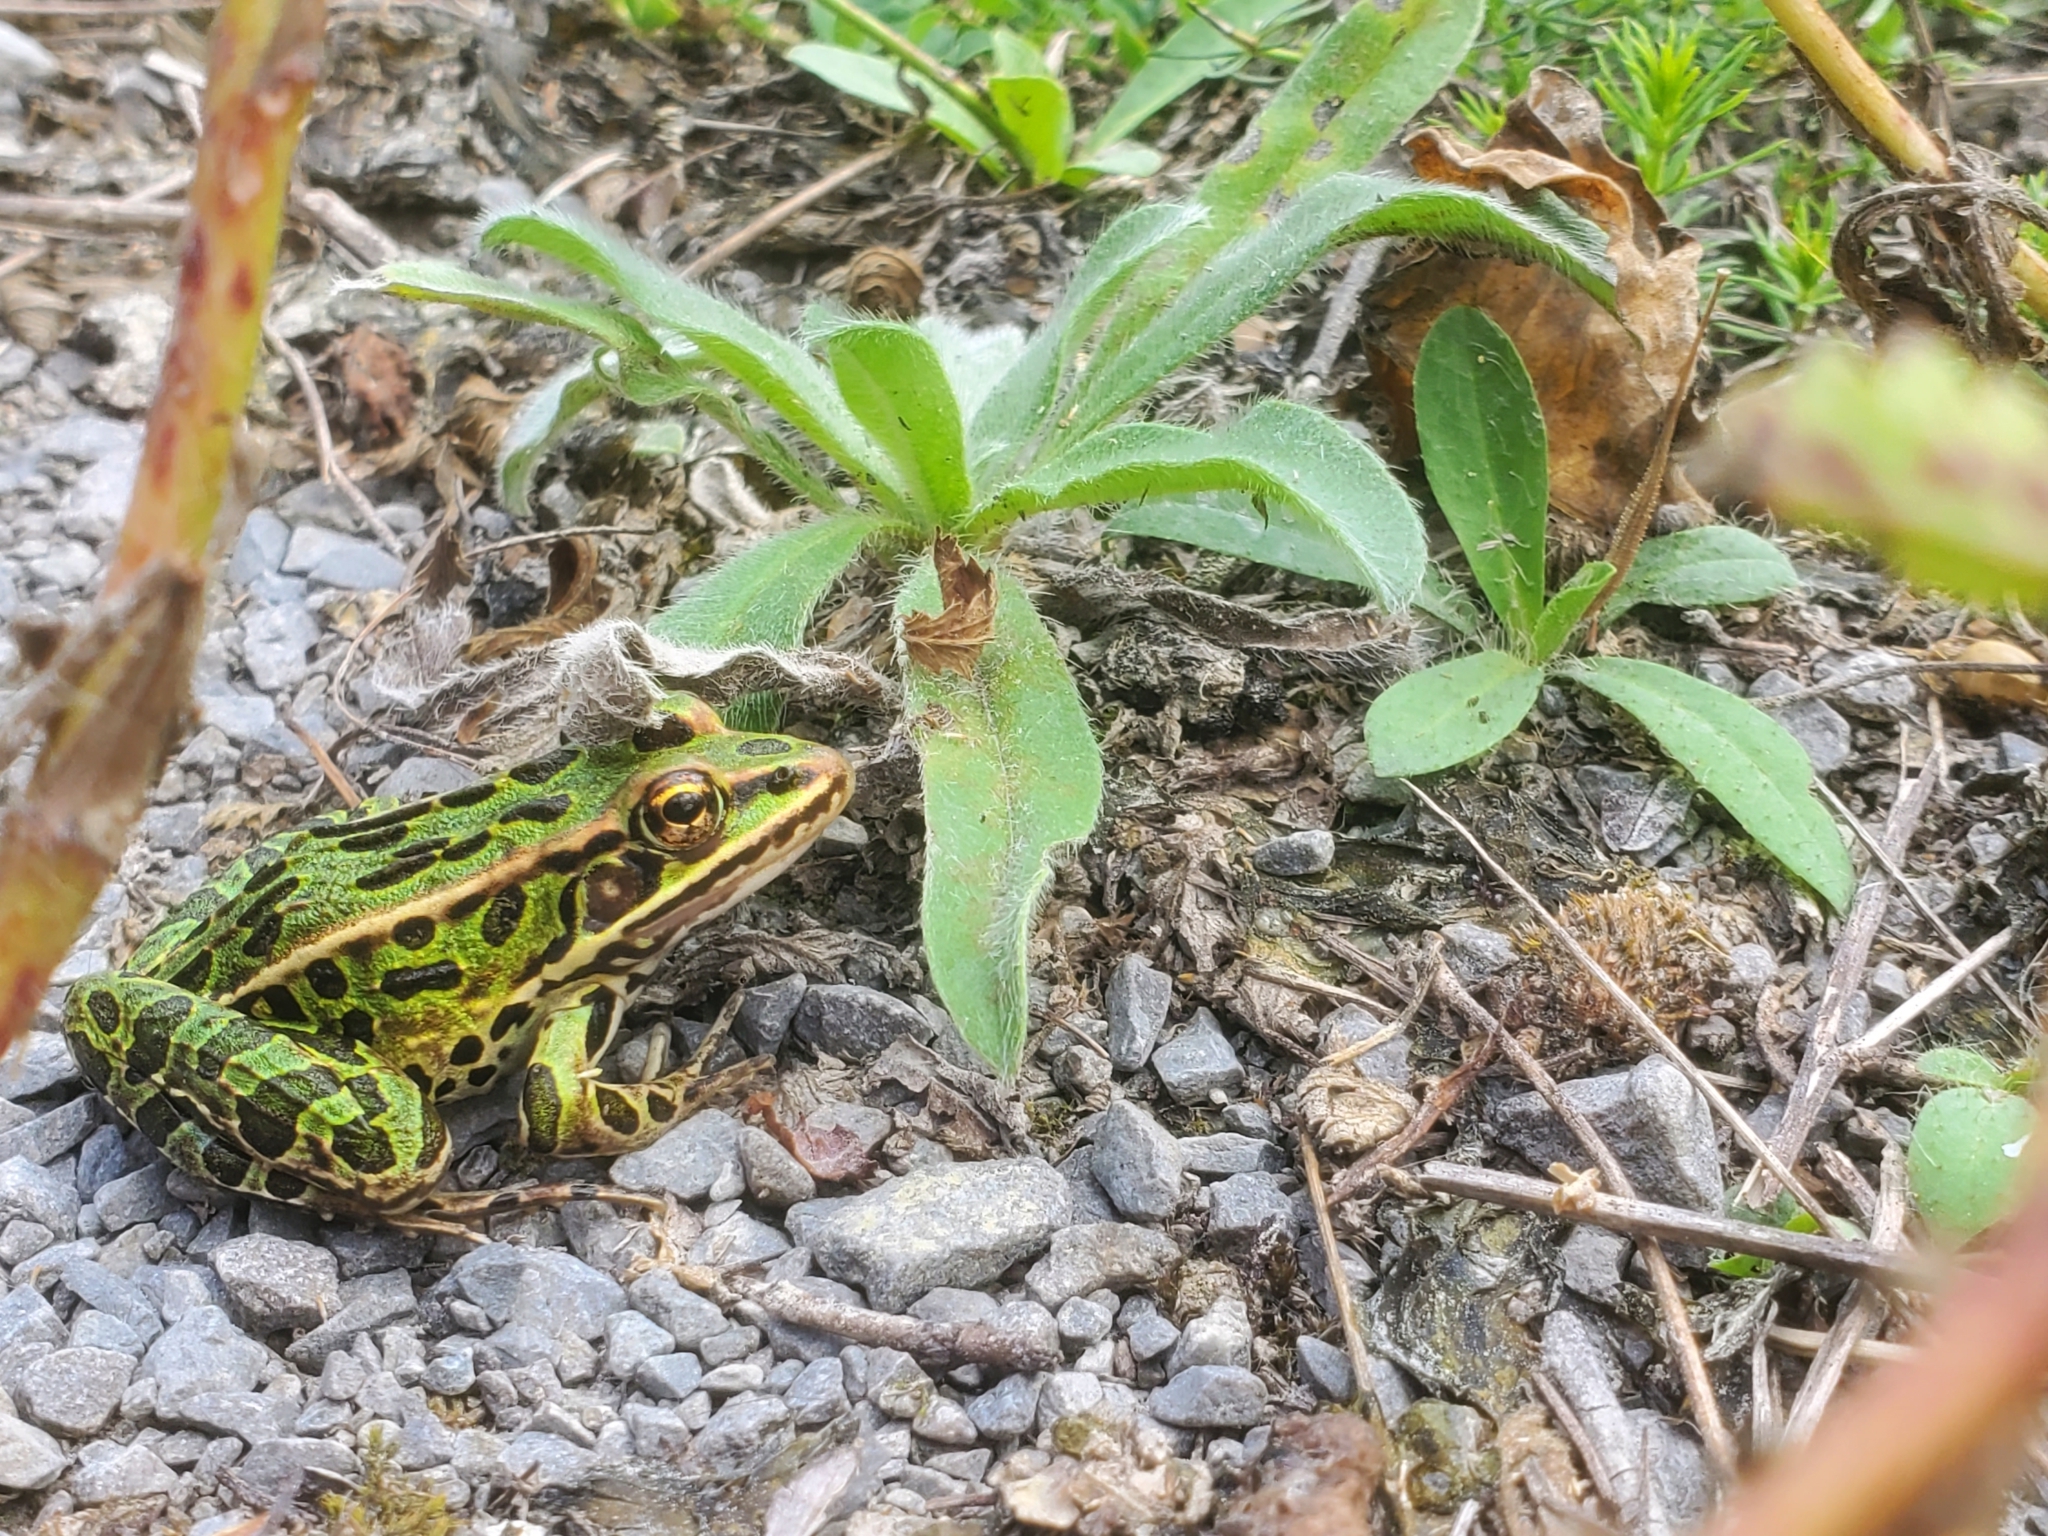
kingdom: Animalia
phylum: Chordata
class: Amphibia
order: Anura
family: Ranidae
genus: Lithobates
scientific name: Lithobates pipiens
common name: Northern leopard frog
